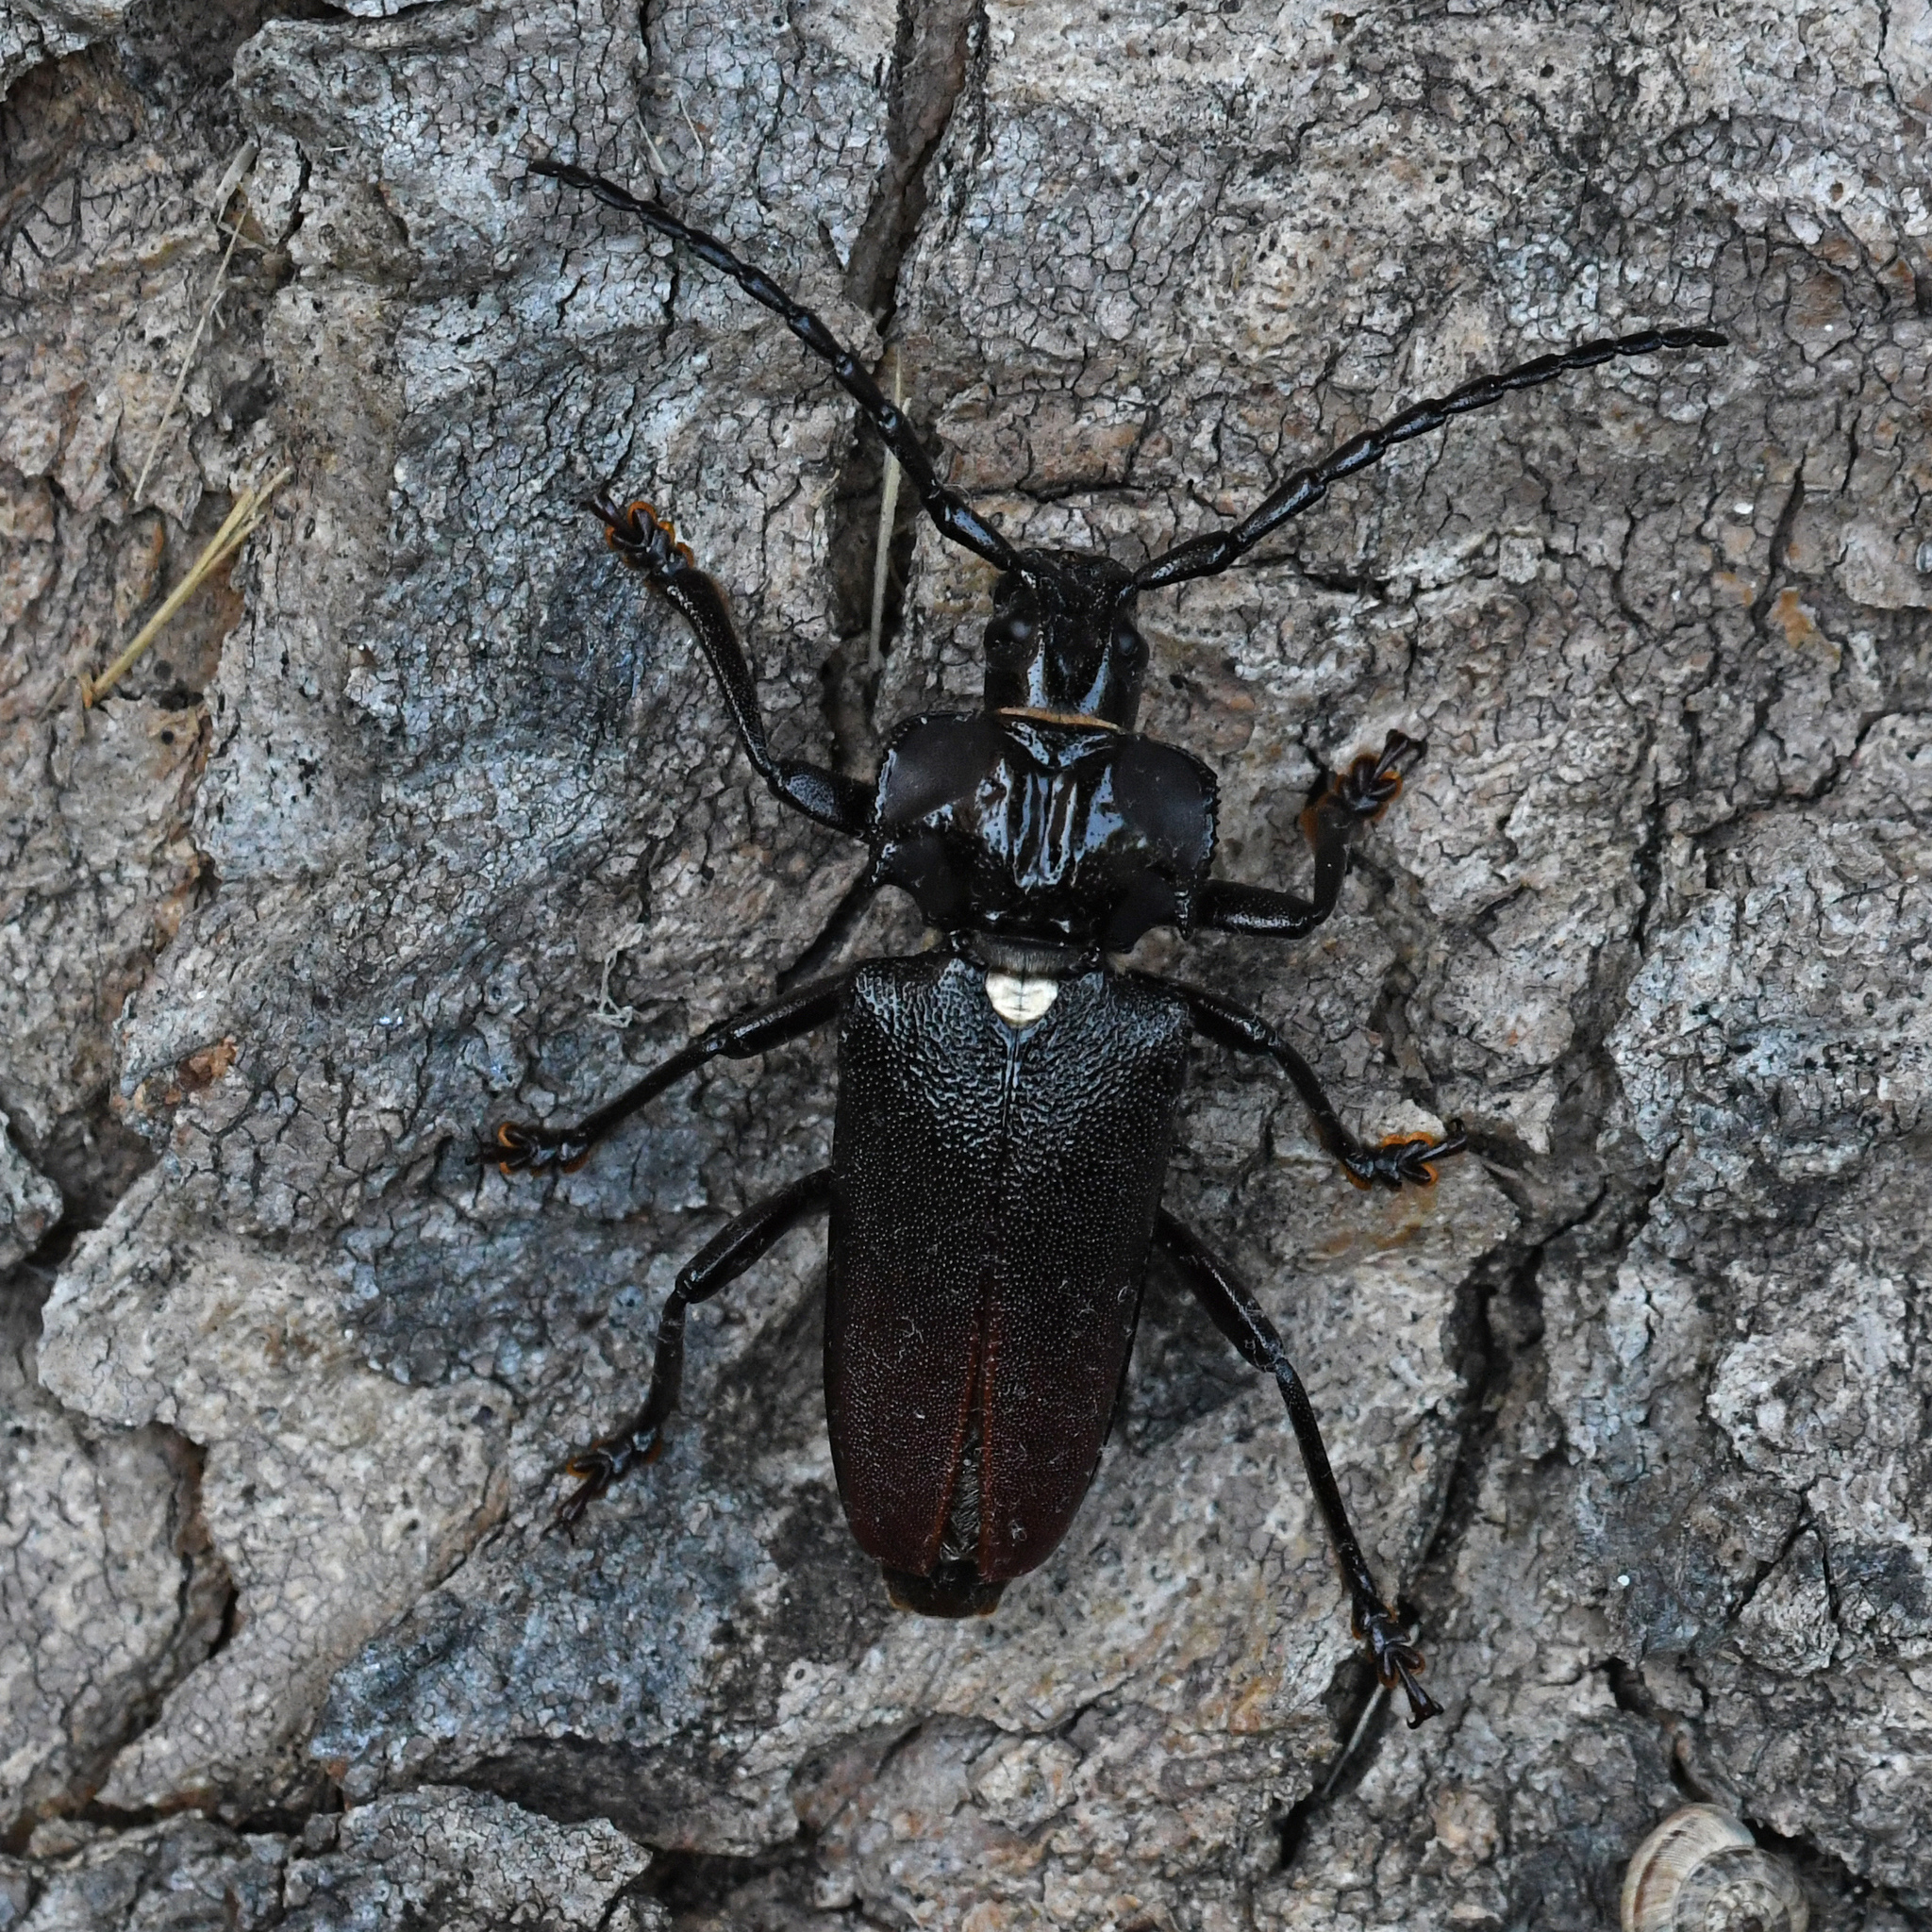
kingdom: Animalia
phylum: Arthropoda
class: Insecta
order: Coleoptera
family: Cerambycidae
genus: Solenoptera
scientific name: Solenoptera dominicensis
